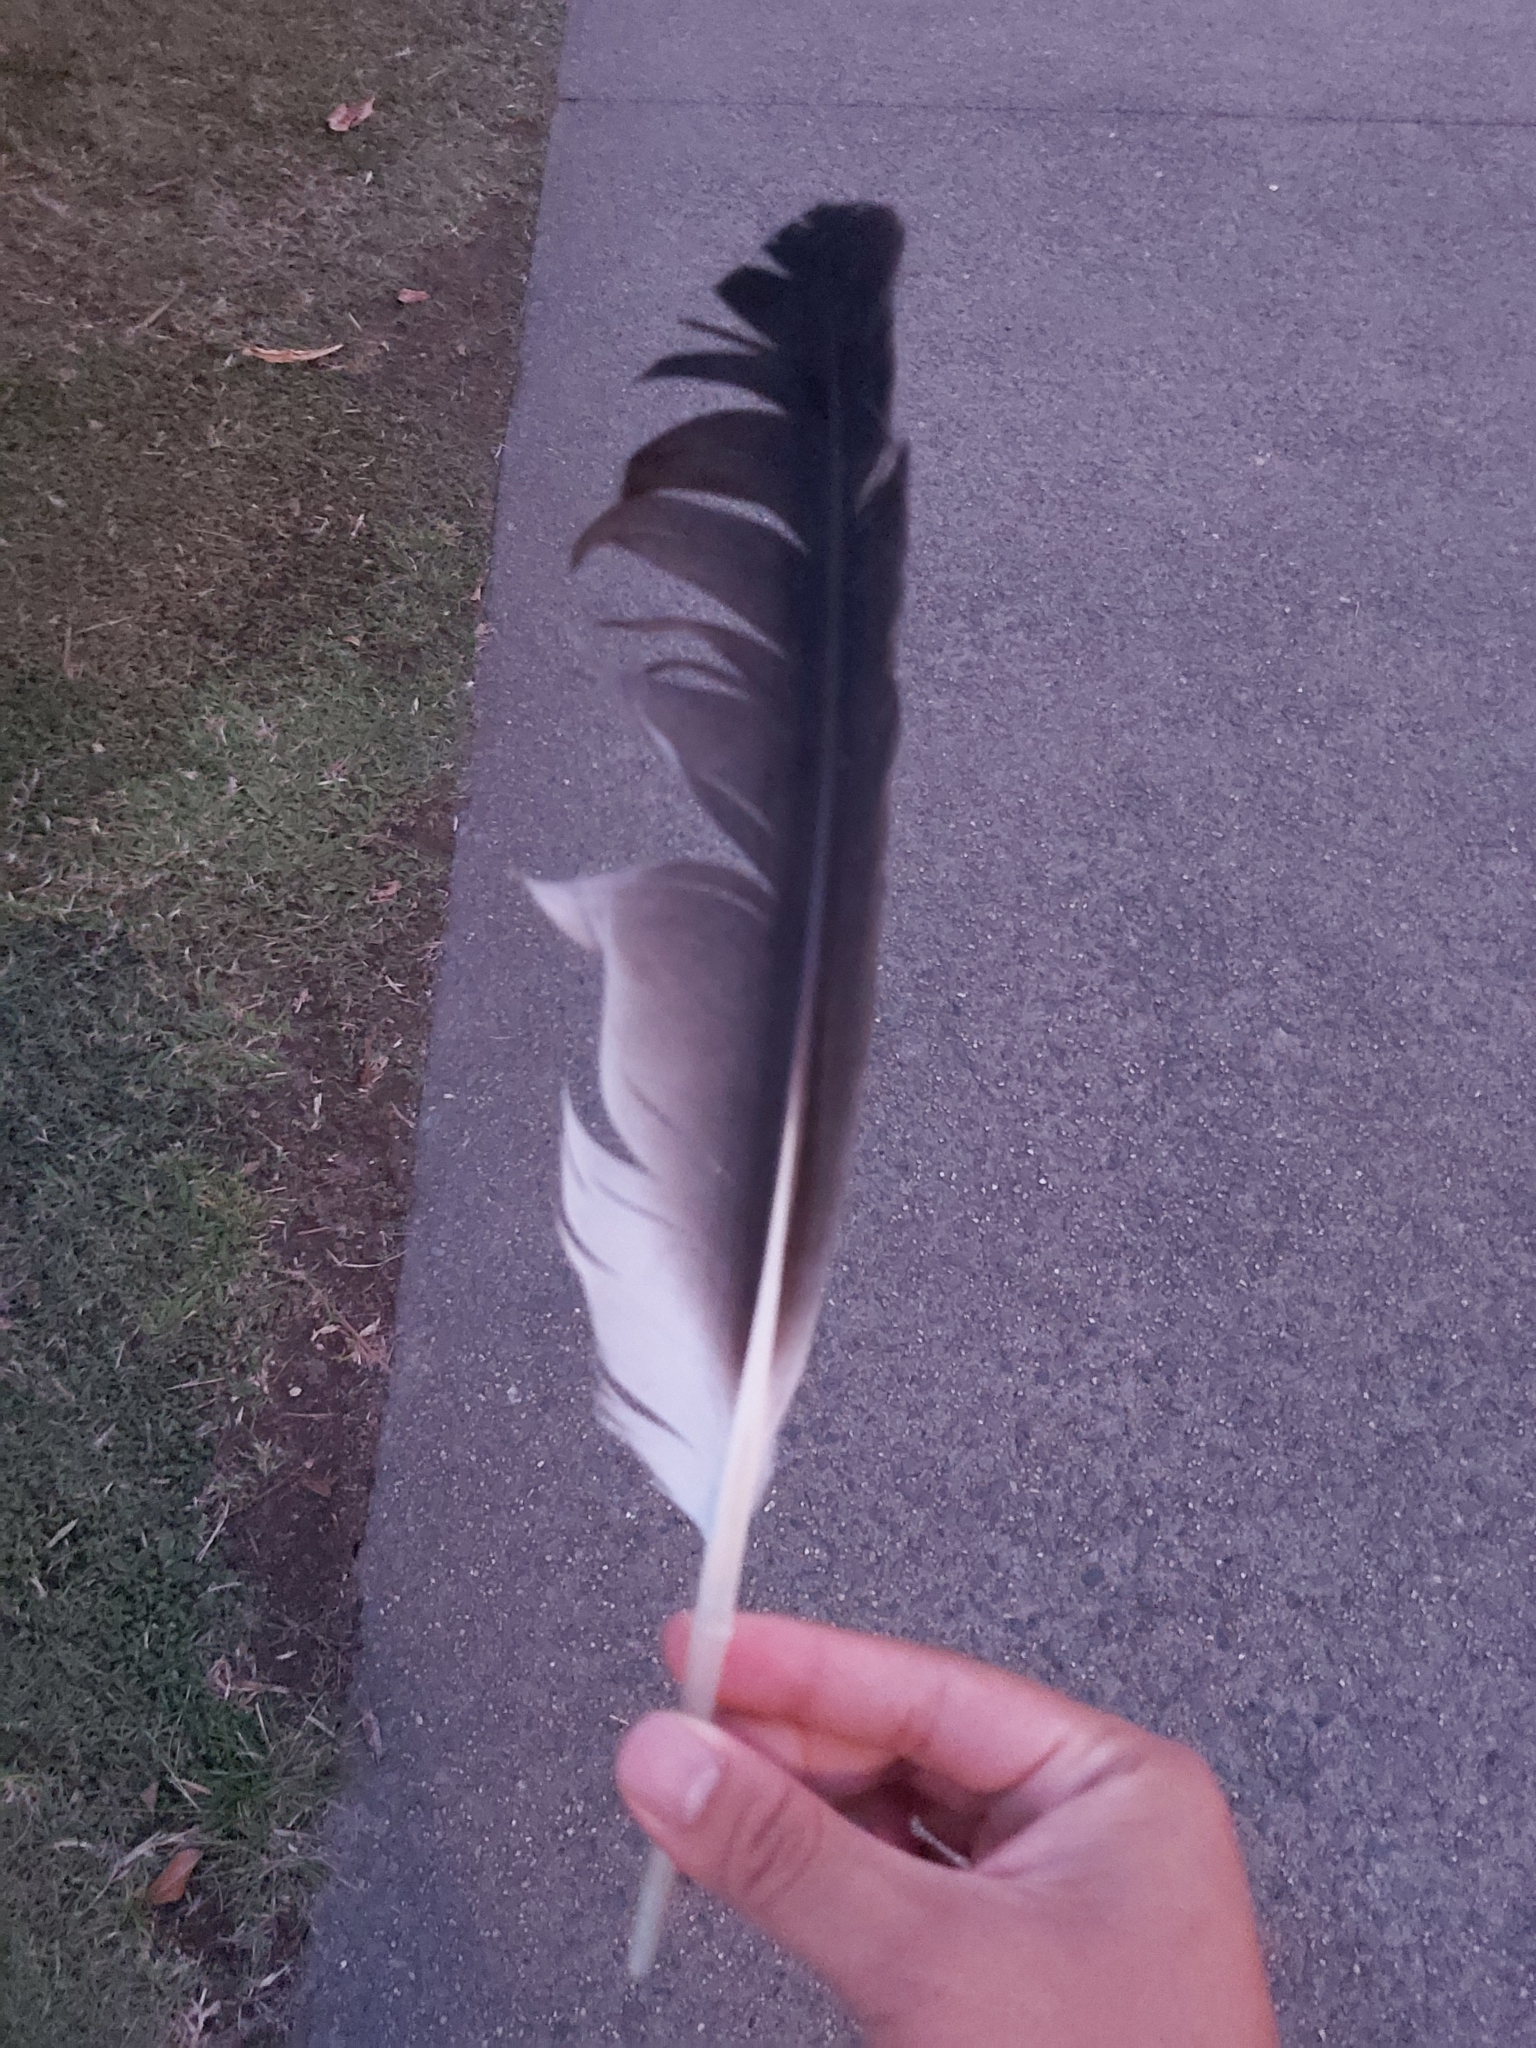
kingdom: Animalia
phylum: Chordata
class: Aves
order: Pelecaniformes
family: Pelecanidae
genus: Pelecanus
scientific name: Pelecanus conspicillatus
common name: Australian pelican
